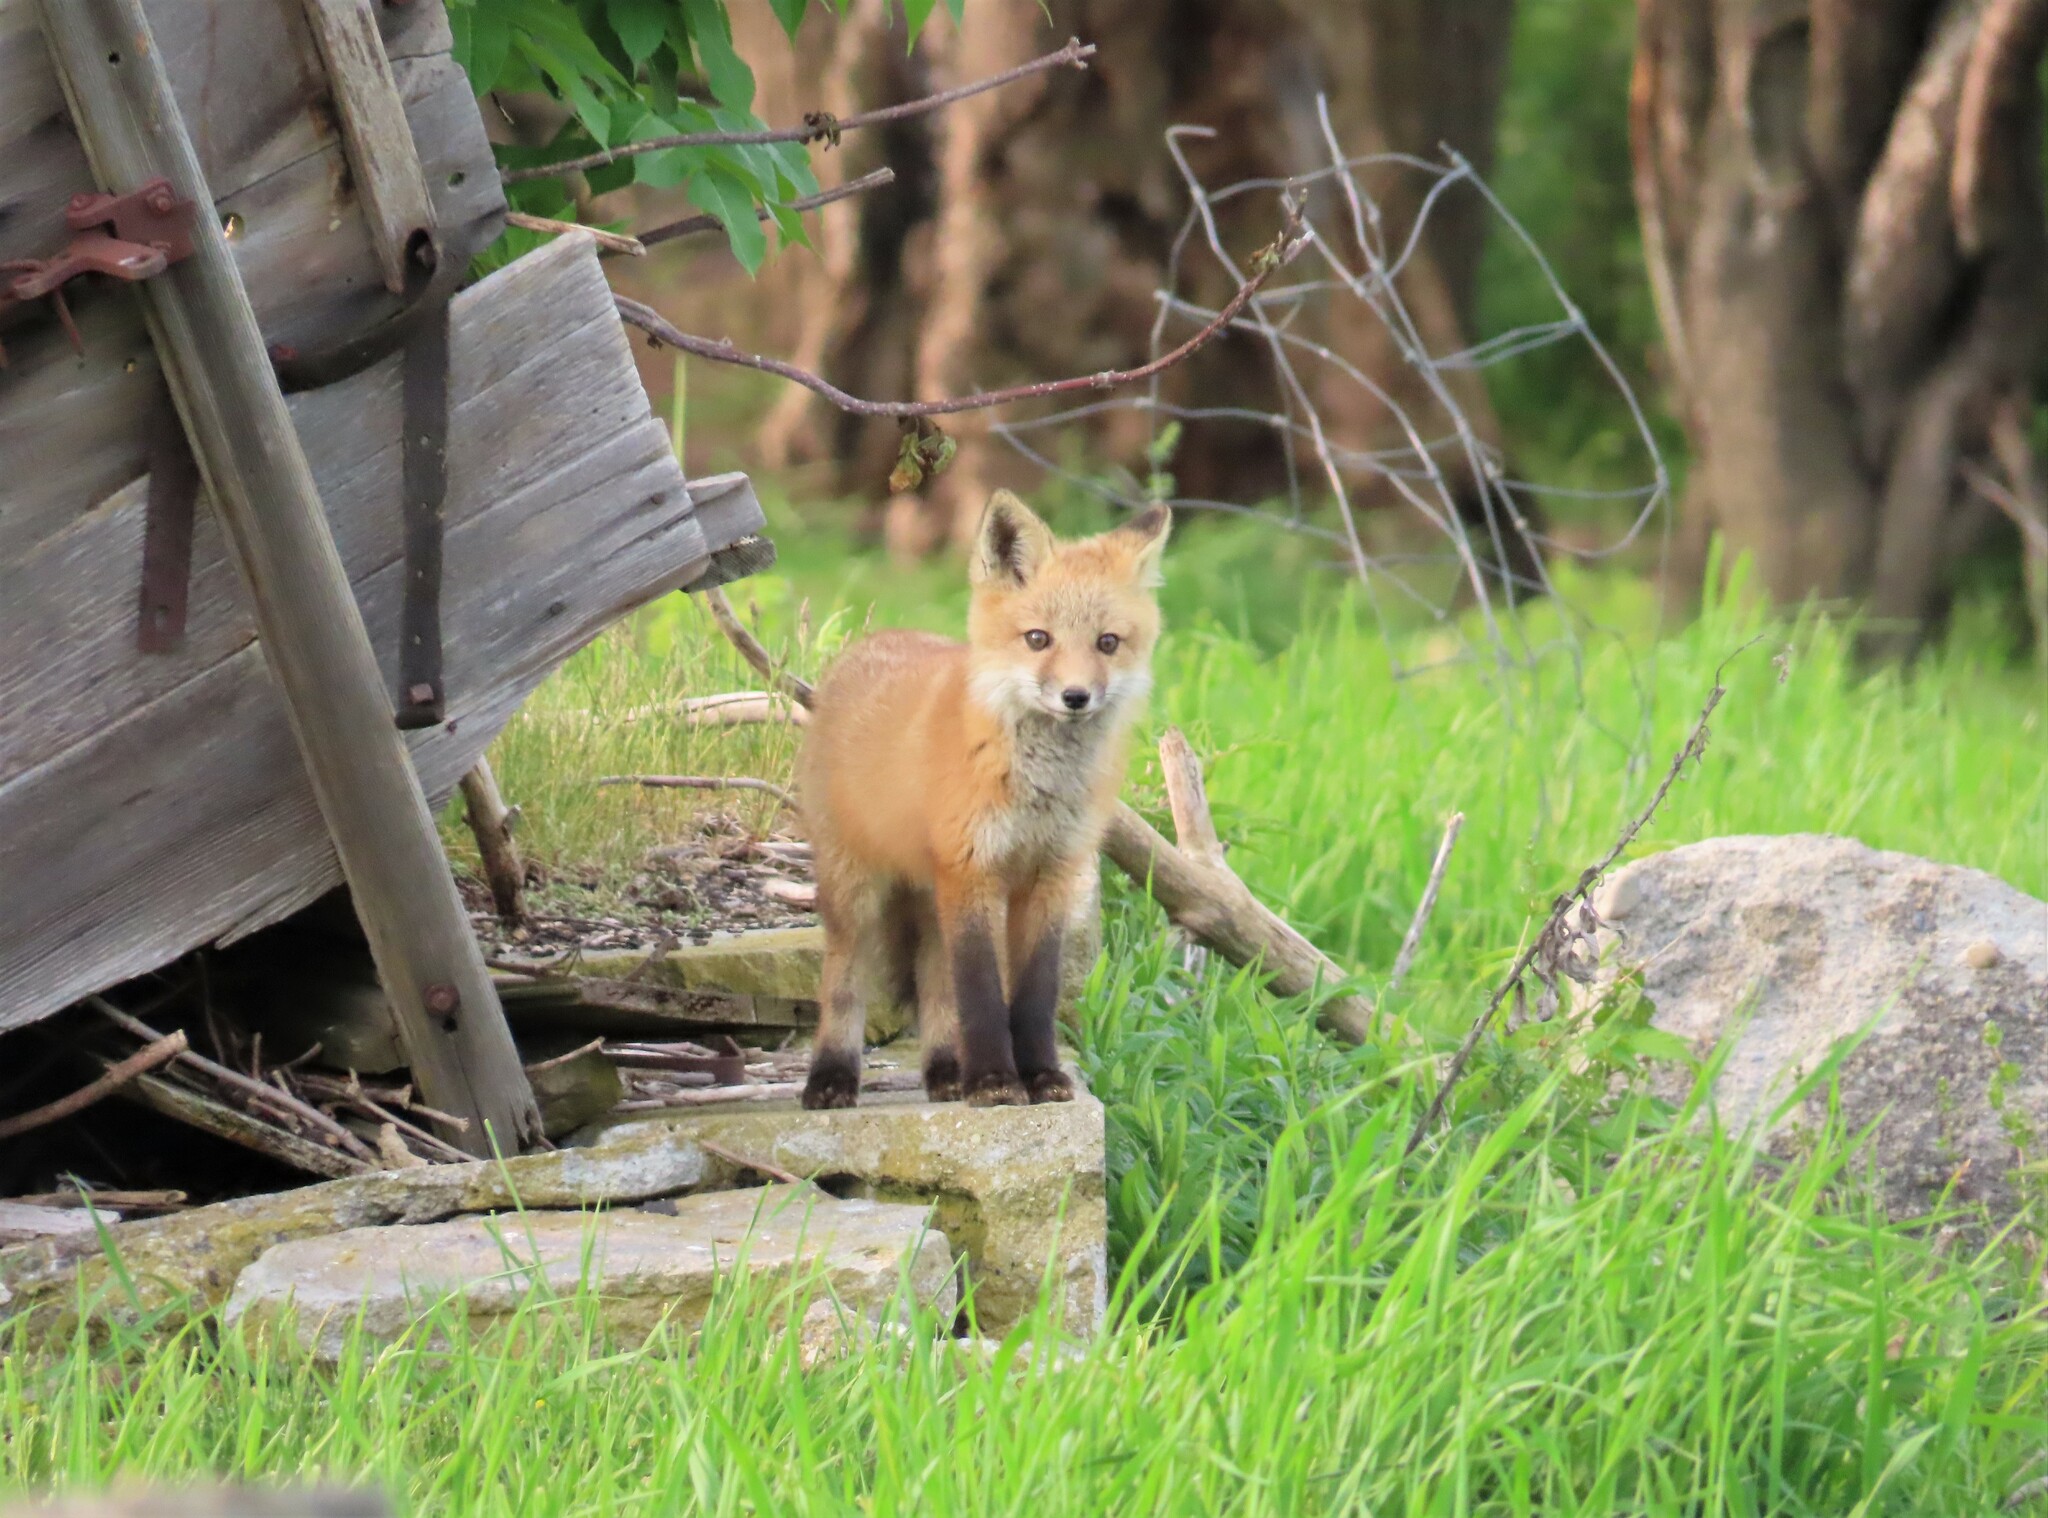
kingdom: Animalia
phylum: Chordata
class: Mammalia
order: Carnivora
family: Canidae
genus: Vulpes
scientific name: Vulpes vulpes
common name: Red fox
